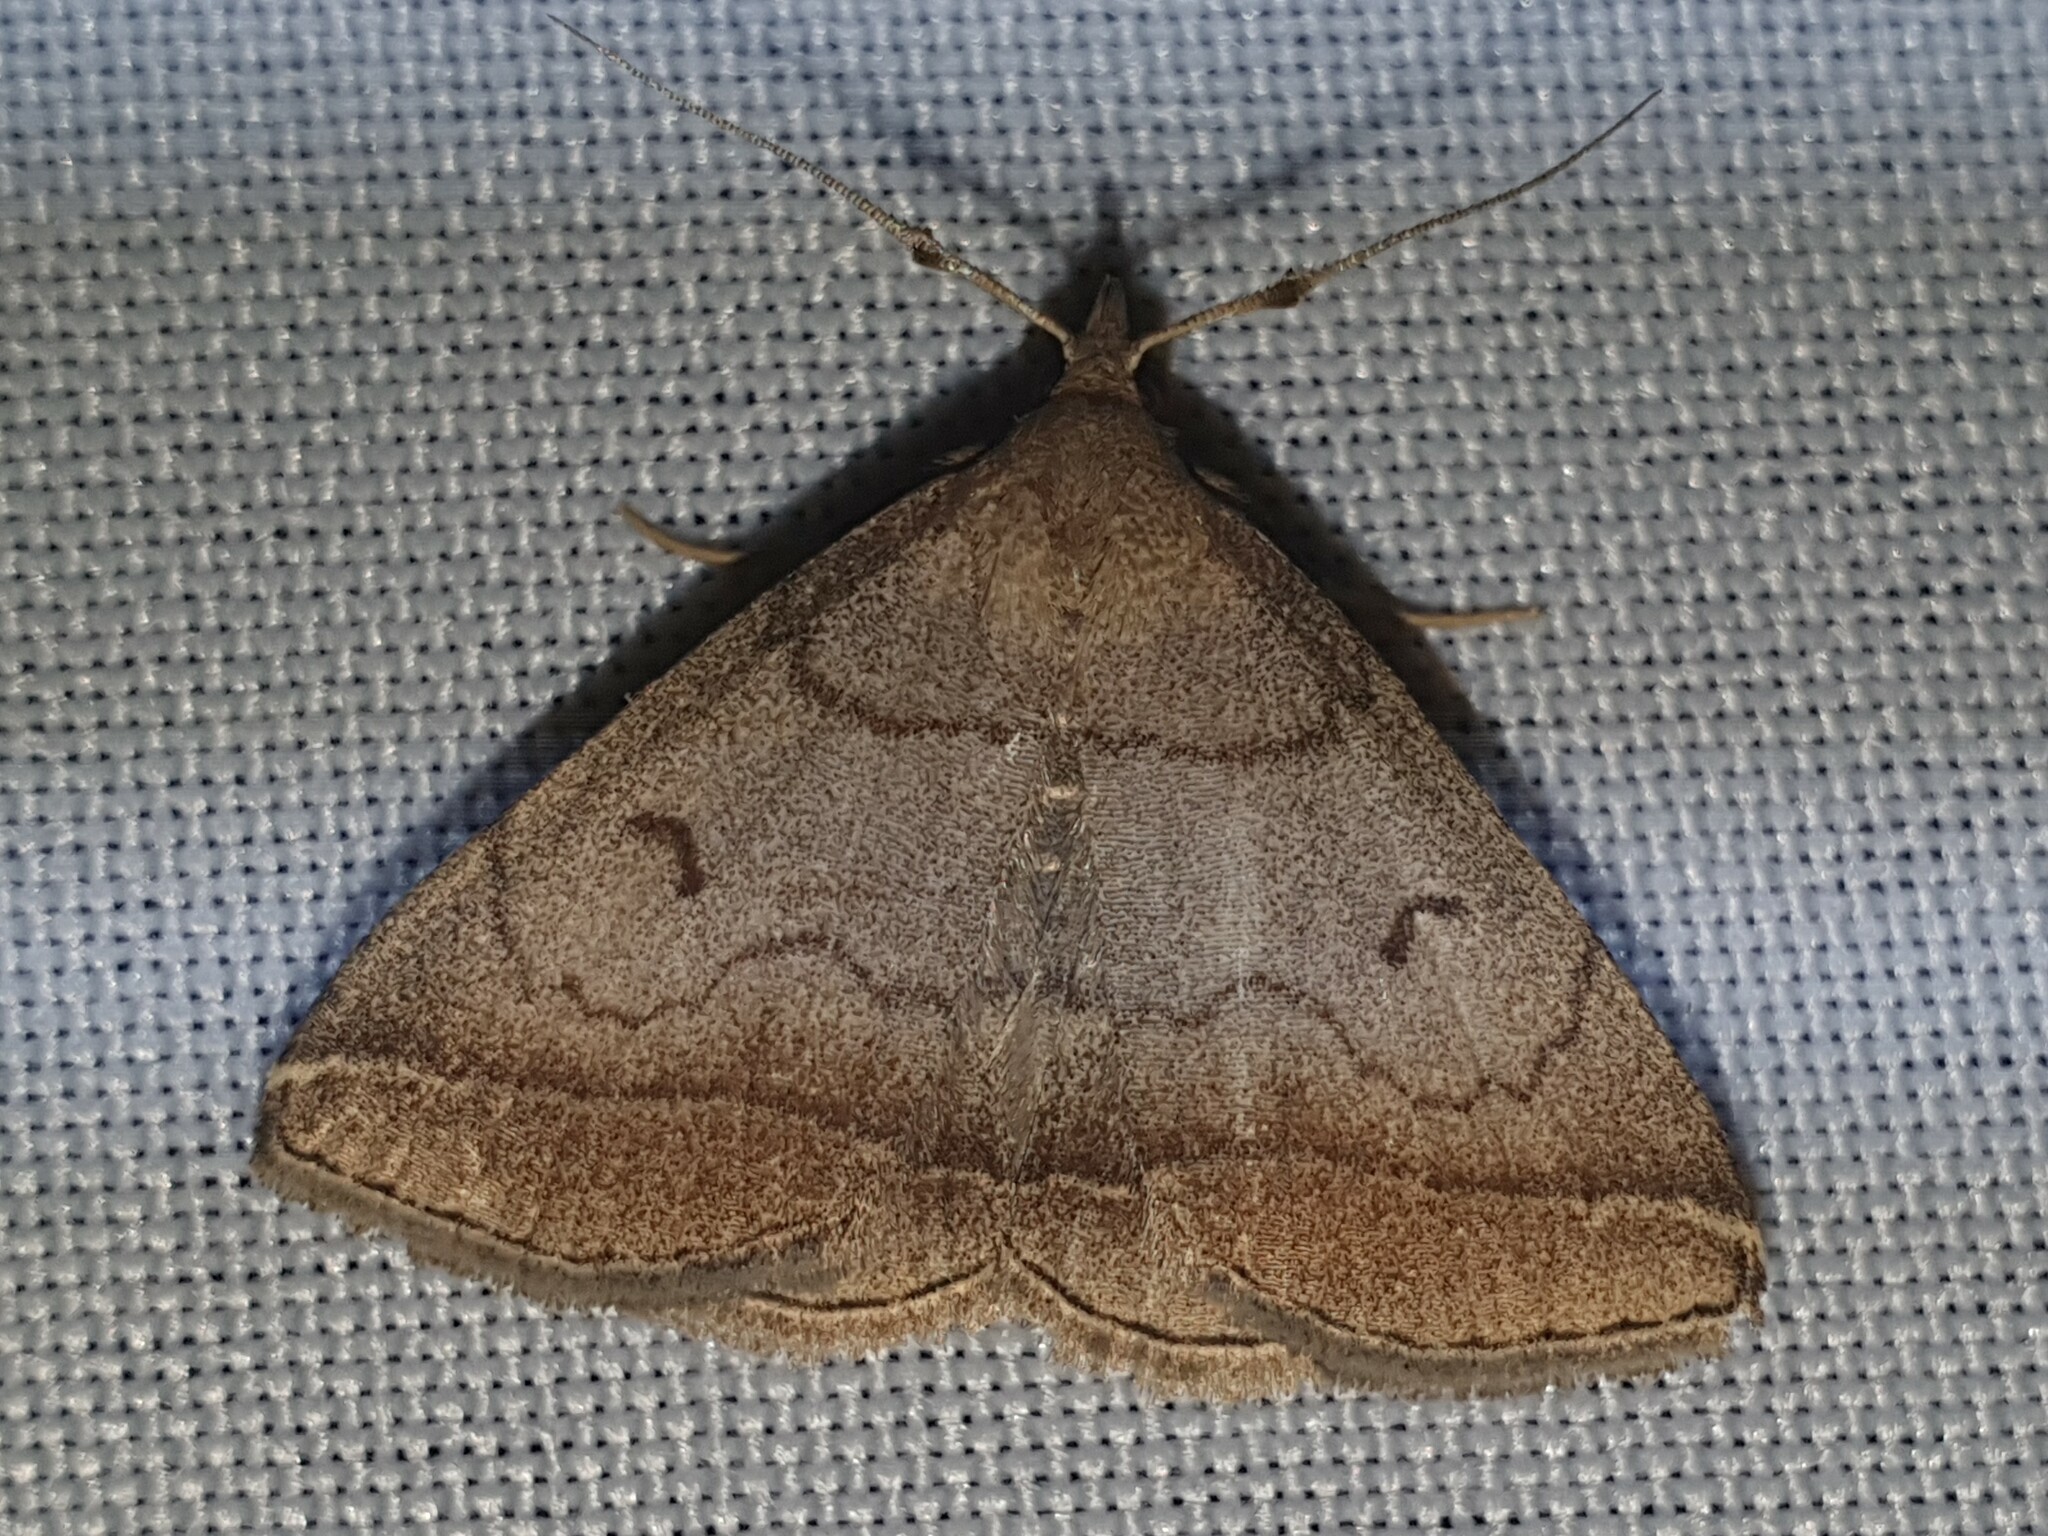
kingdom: Animalia
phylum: Arthropoda
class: Insecta
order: Lepidoptera
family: Erebidae
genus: Zanclognatha
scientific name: Zanclognatha lunalis
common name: Jubilee fan-foot
